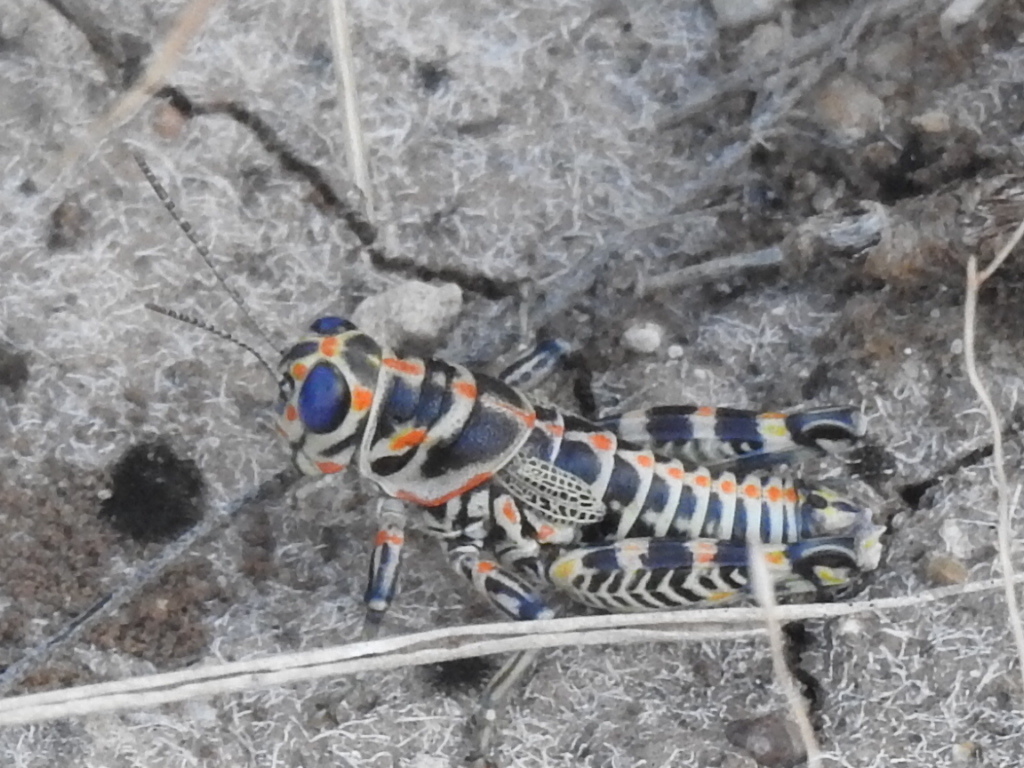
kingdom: Animalia
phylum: Arthropoda
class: Insecta
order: Orthoptera
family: Acrididae
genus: Dactylotum
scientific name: Dactylotum bicolor
